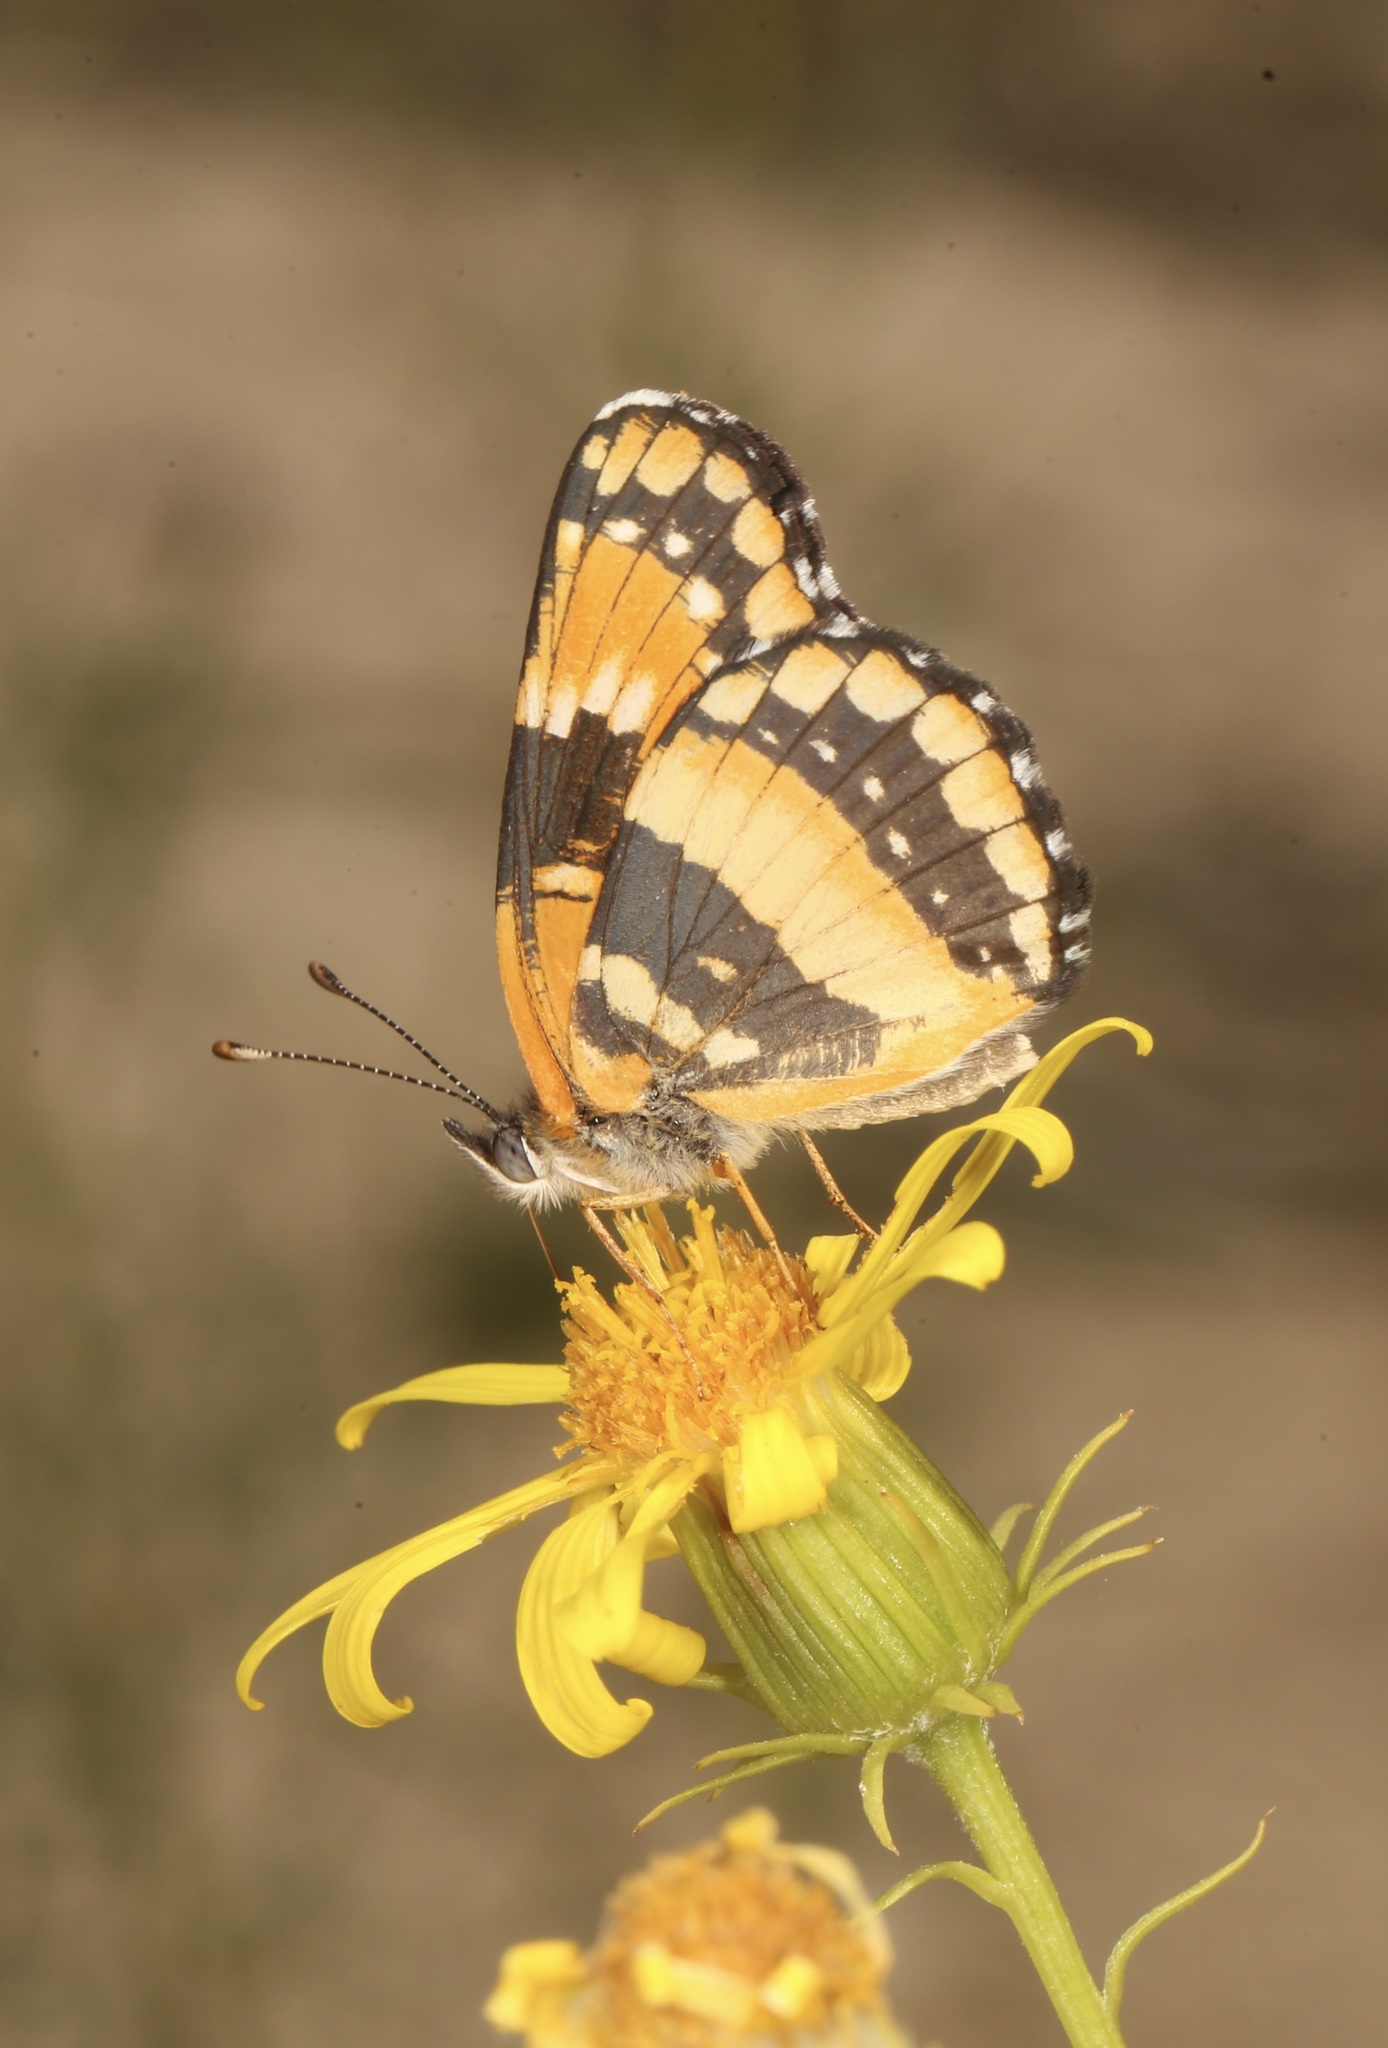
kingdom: Animalia
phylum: Arthropoda
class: Insecta
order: Lepidoptera
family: Nymphalidae
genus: Chlosyne
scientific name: Chlosyne californica
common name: California patch
